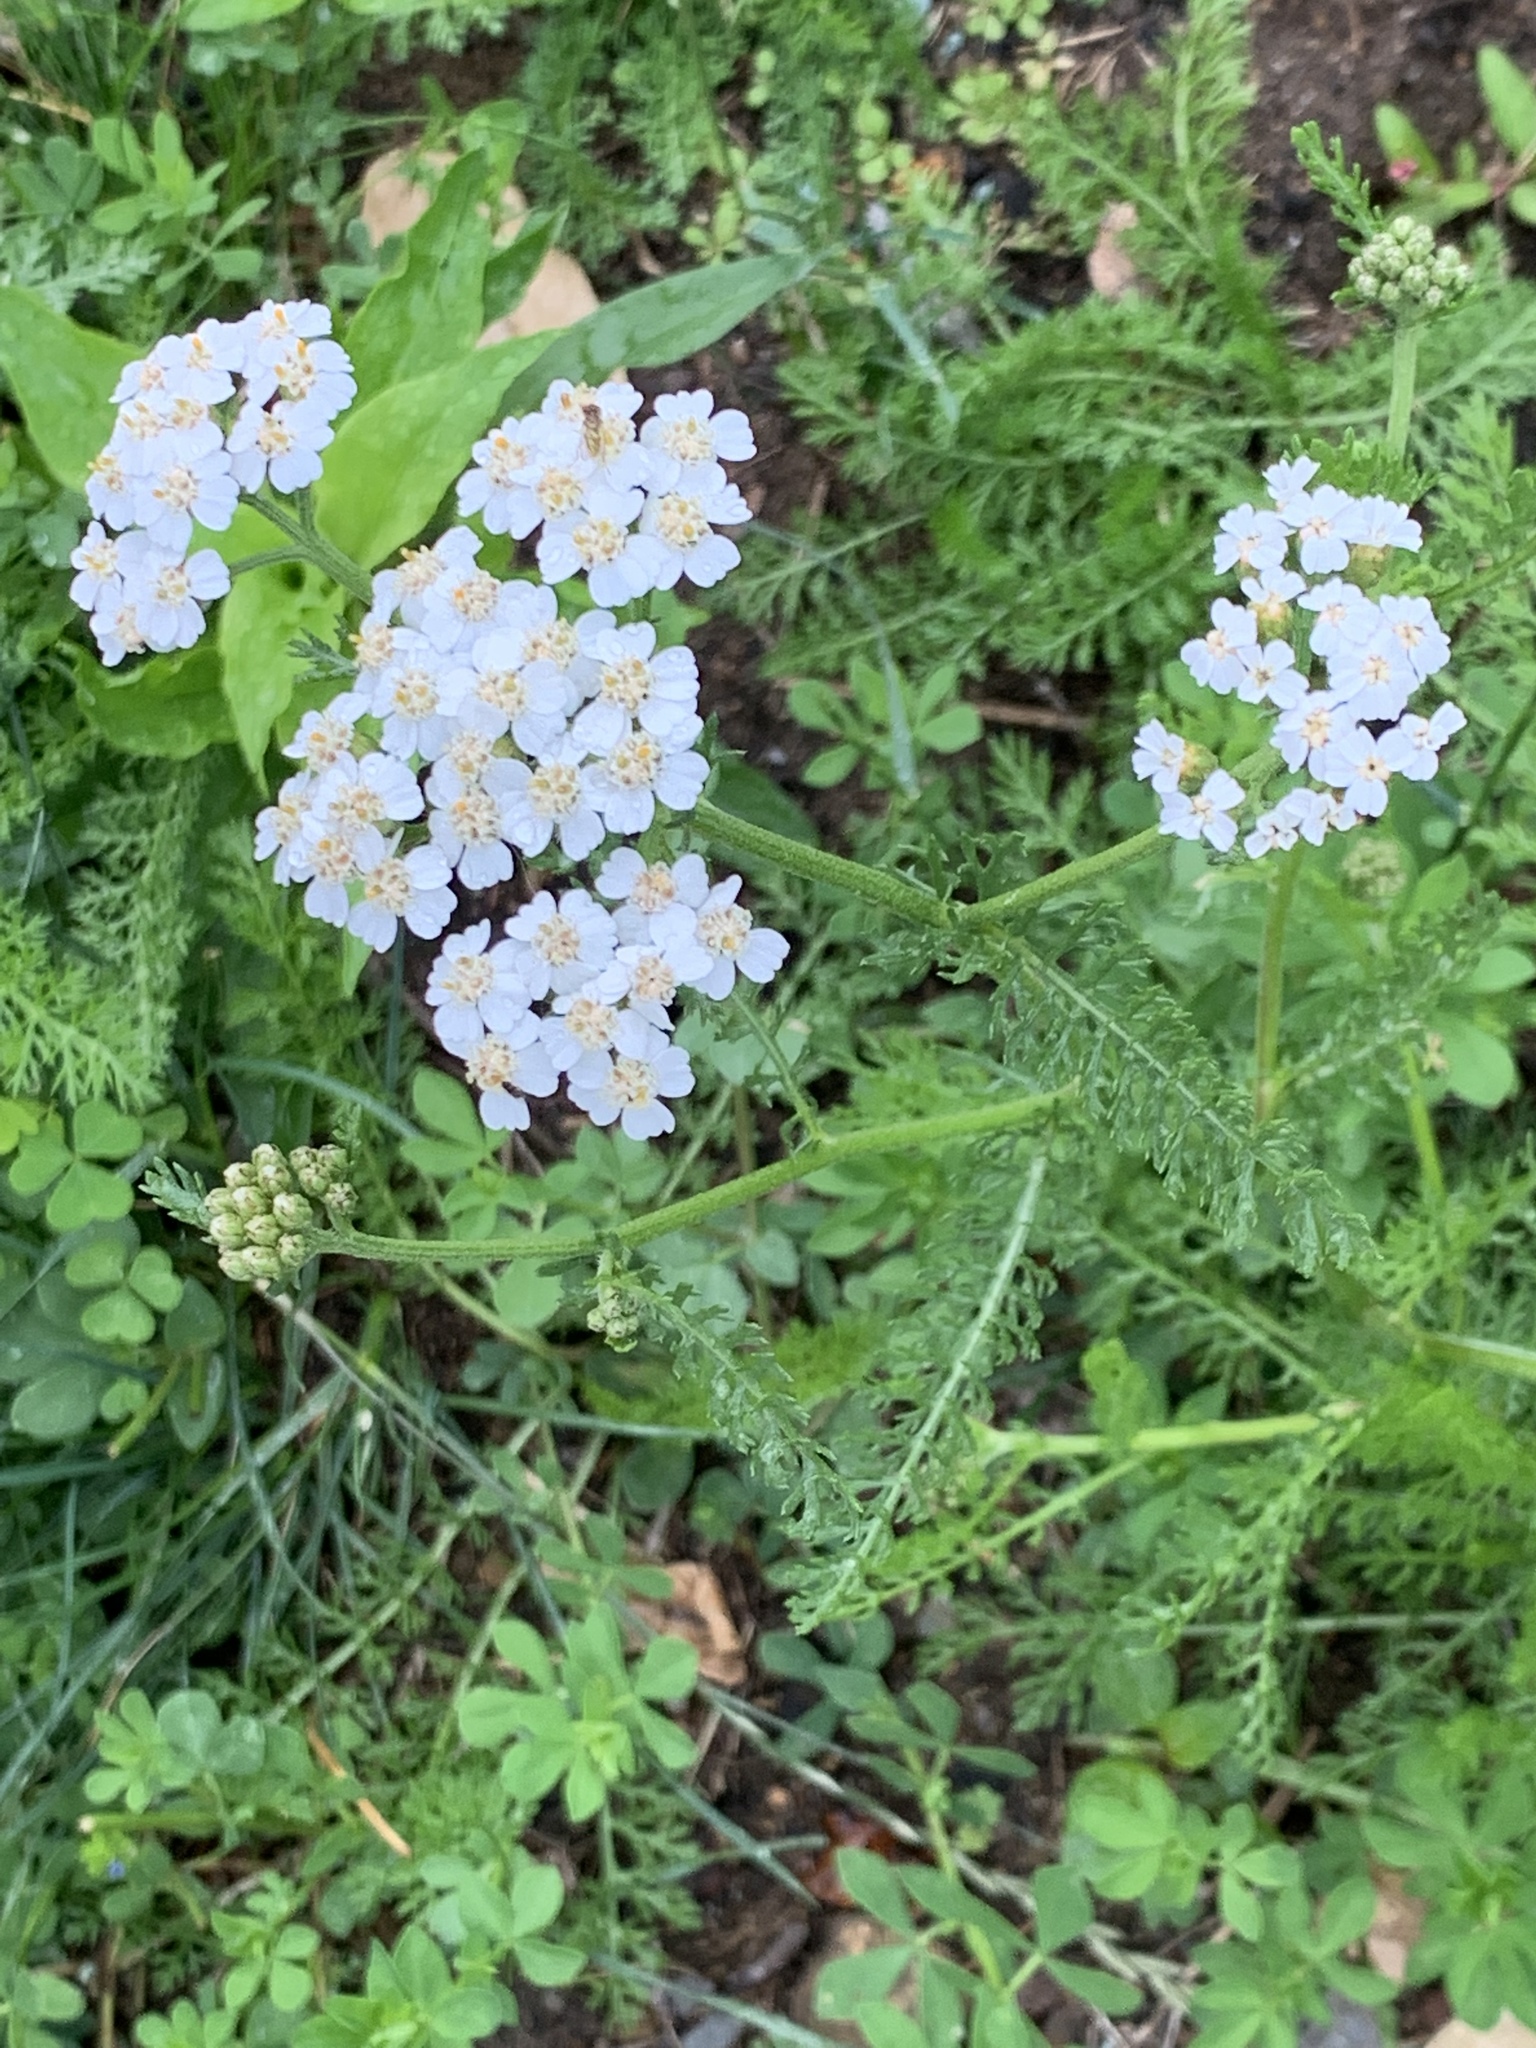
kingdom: Plantae
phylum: Tracheophyta
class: Magnoliopsida
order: Asterales
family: Asteraceae
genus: Achillea
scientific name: Achillea millefolium
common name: Yarrow
